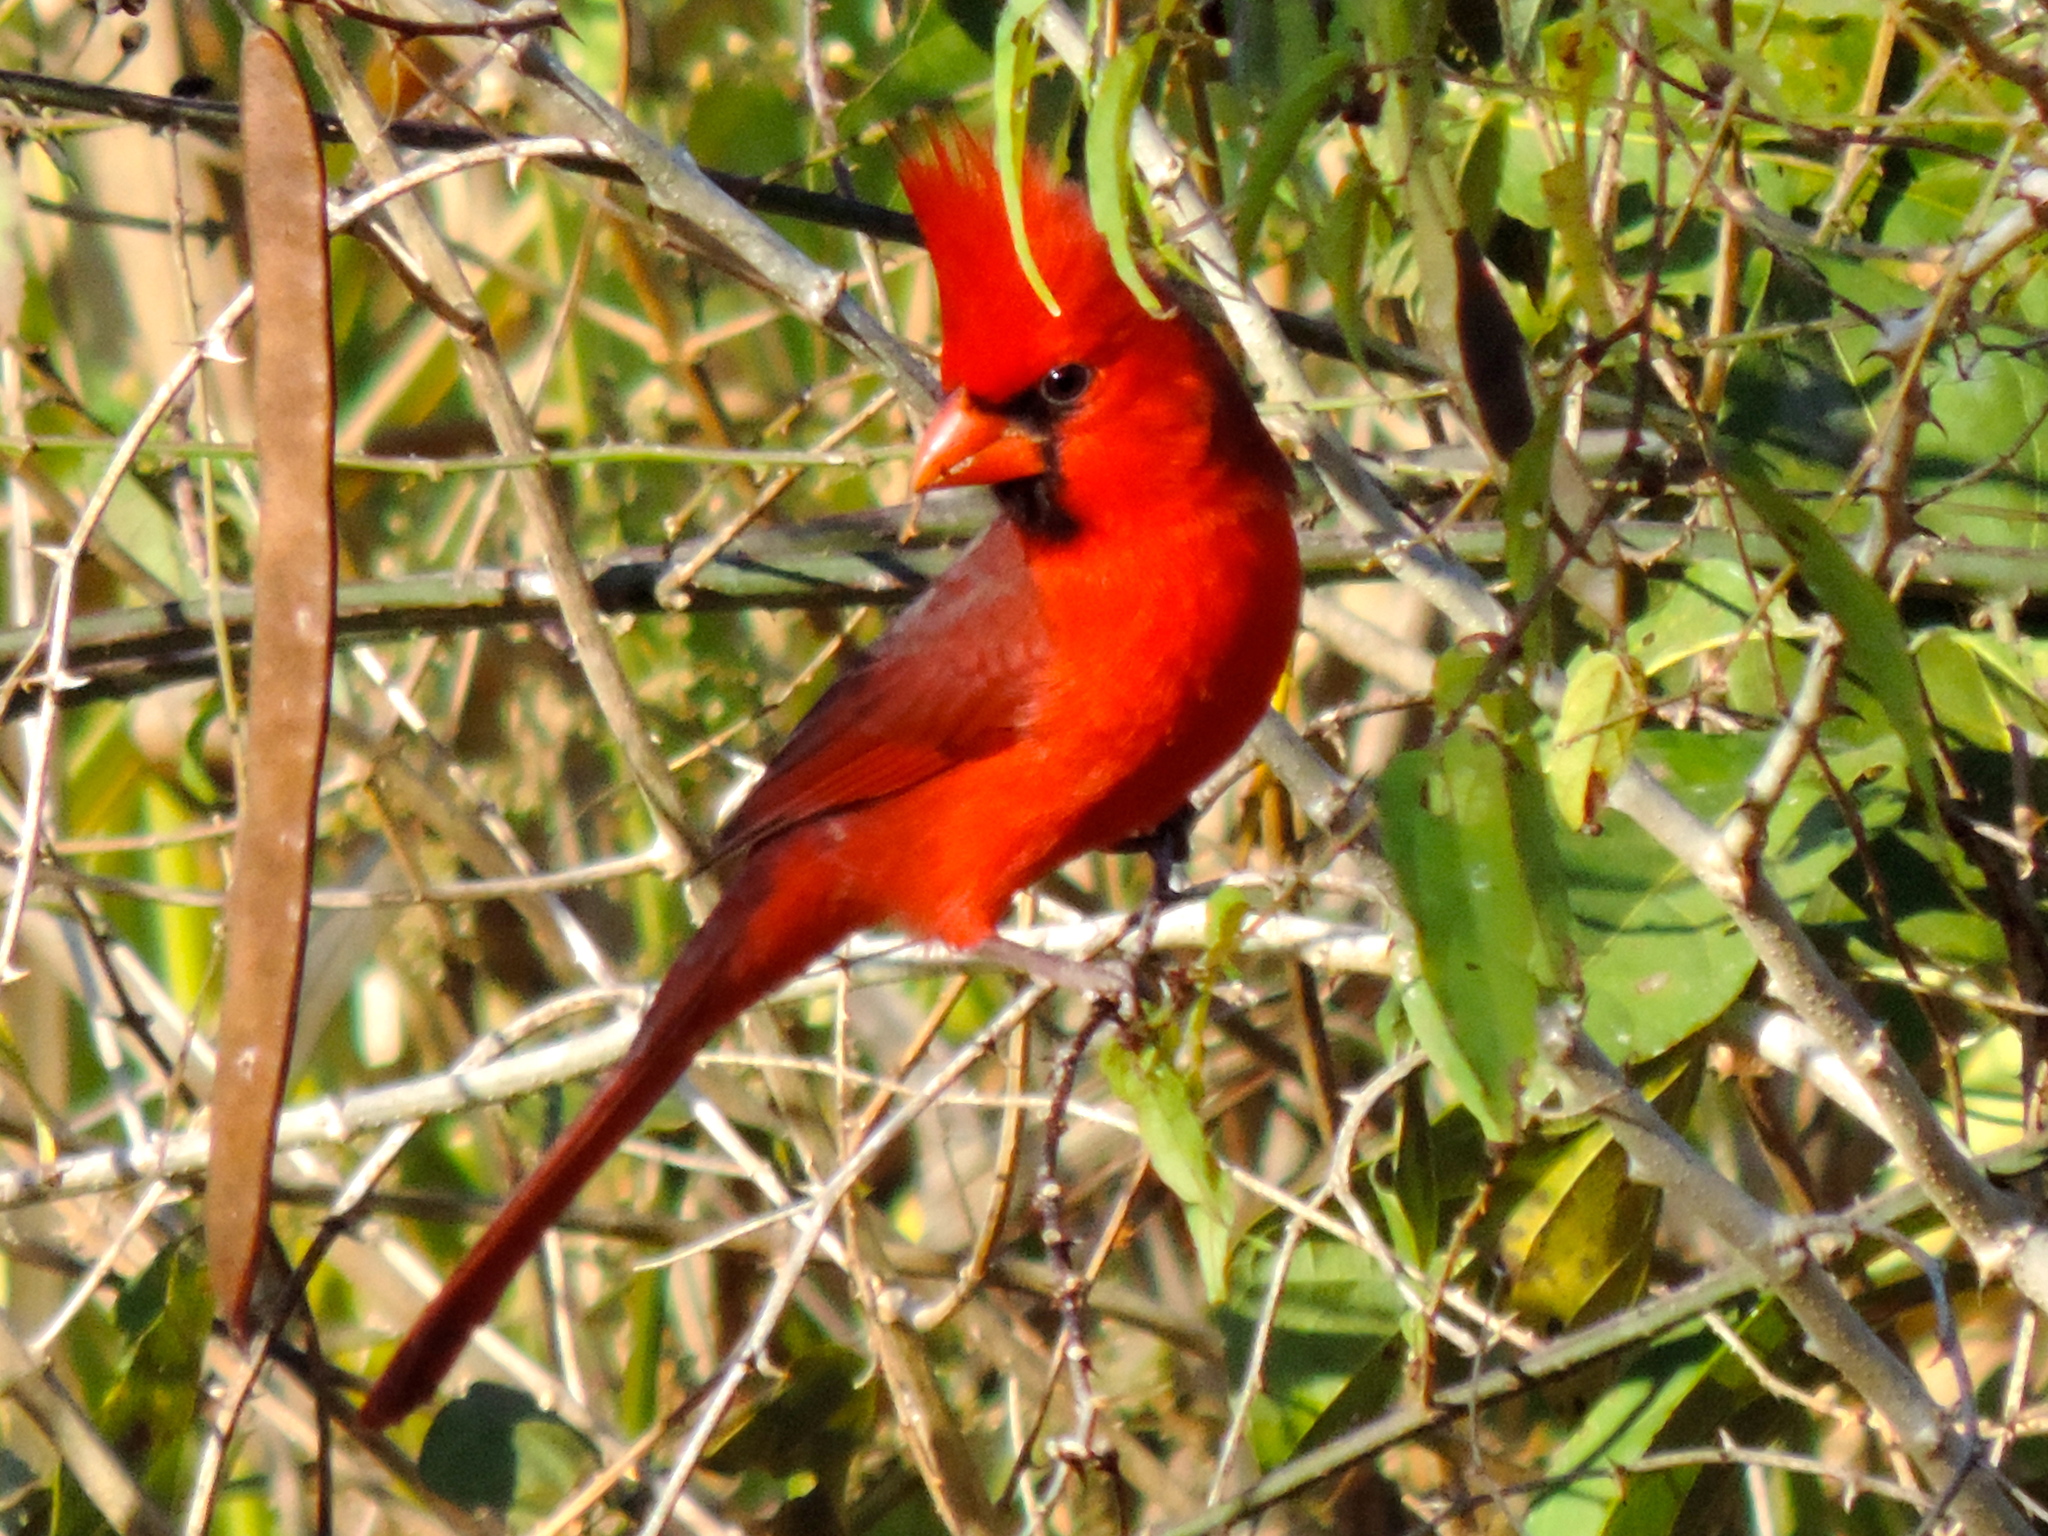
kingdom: Animalia
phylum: Chordata
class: Aves
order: Passeriformes
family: Cardinalidae
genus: Cardinalis
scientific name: Cardinalis cardinalis
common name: Northern cardinal
